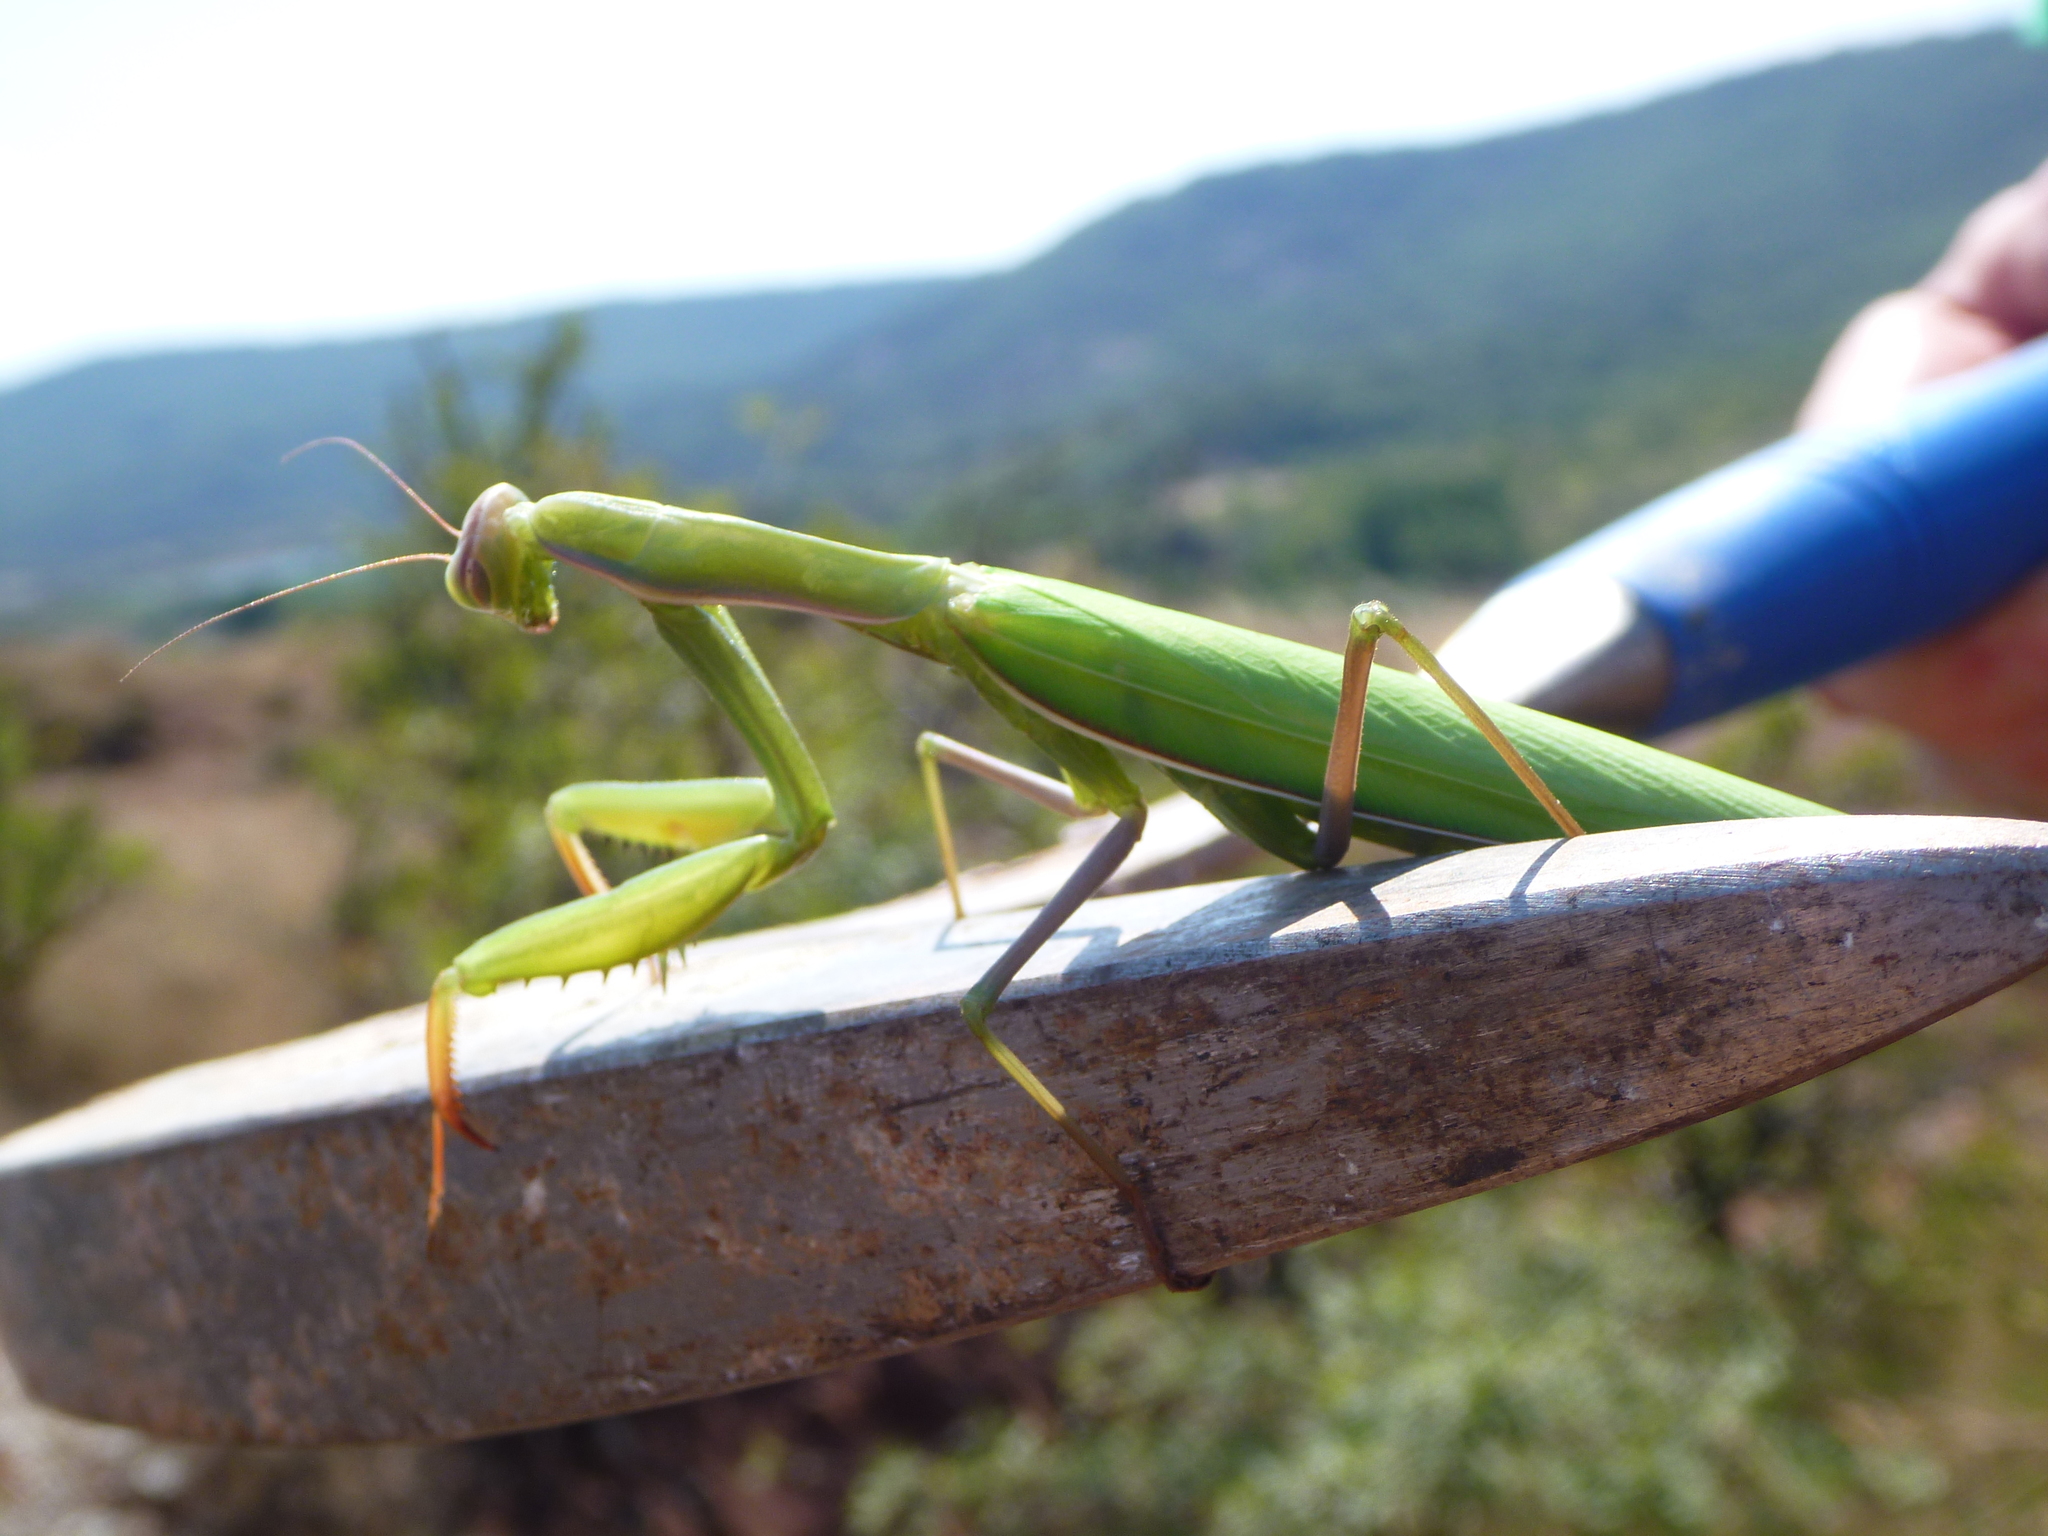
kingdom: Animalia
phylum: Arthropoda
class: Insecta
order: Mantodea
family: Mantidae
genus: Mantis
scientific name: Mantis religiosa
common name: Praying mantis
